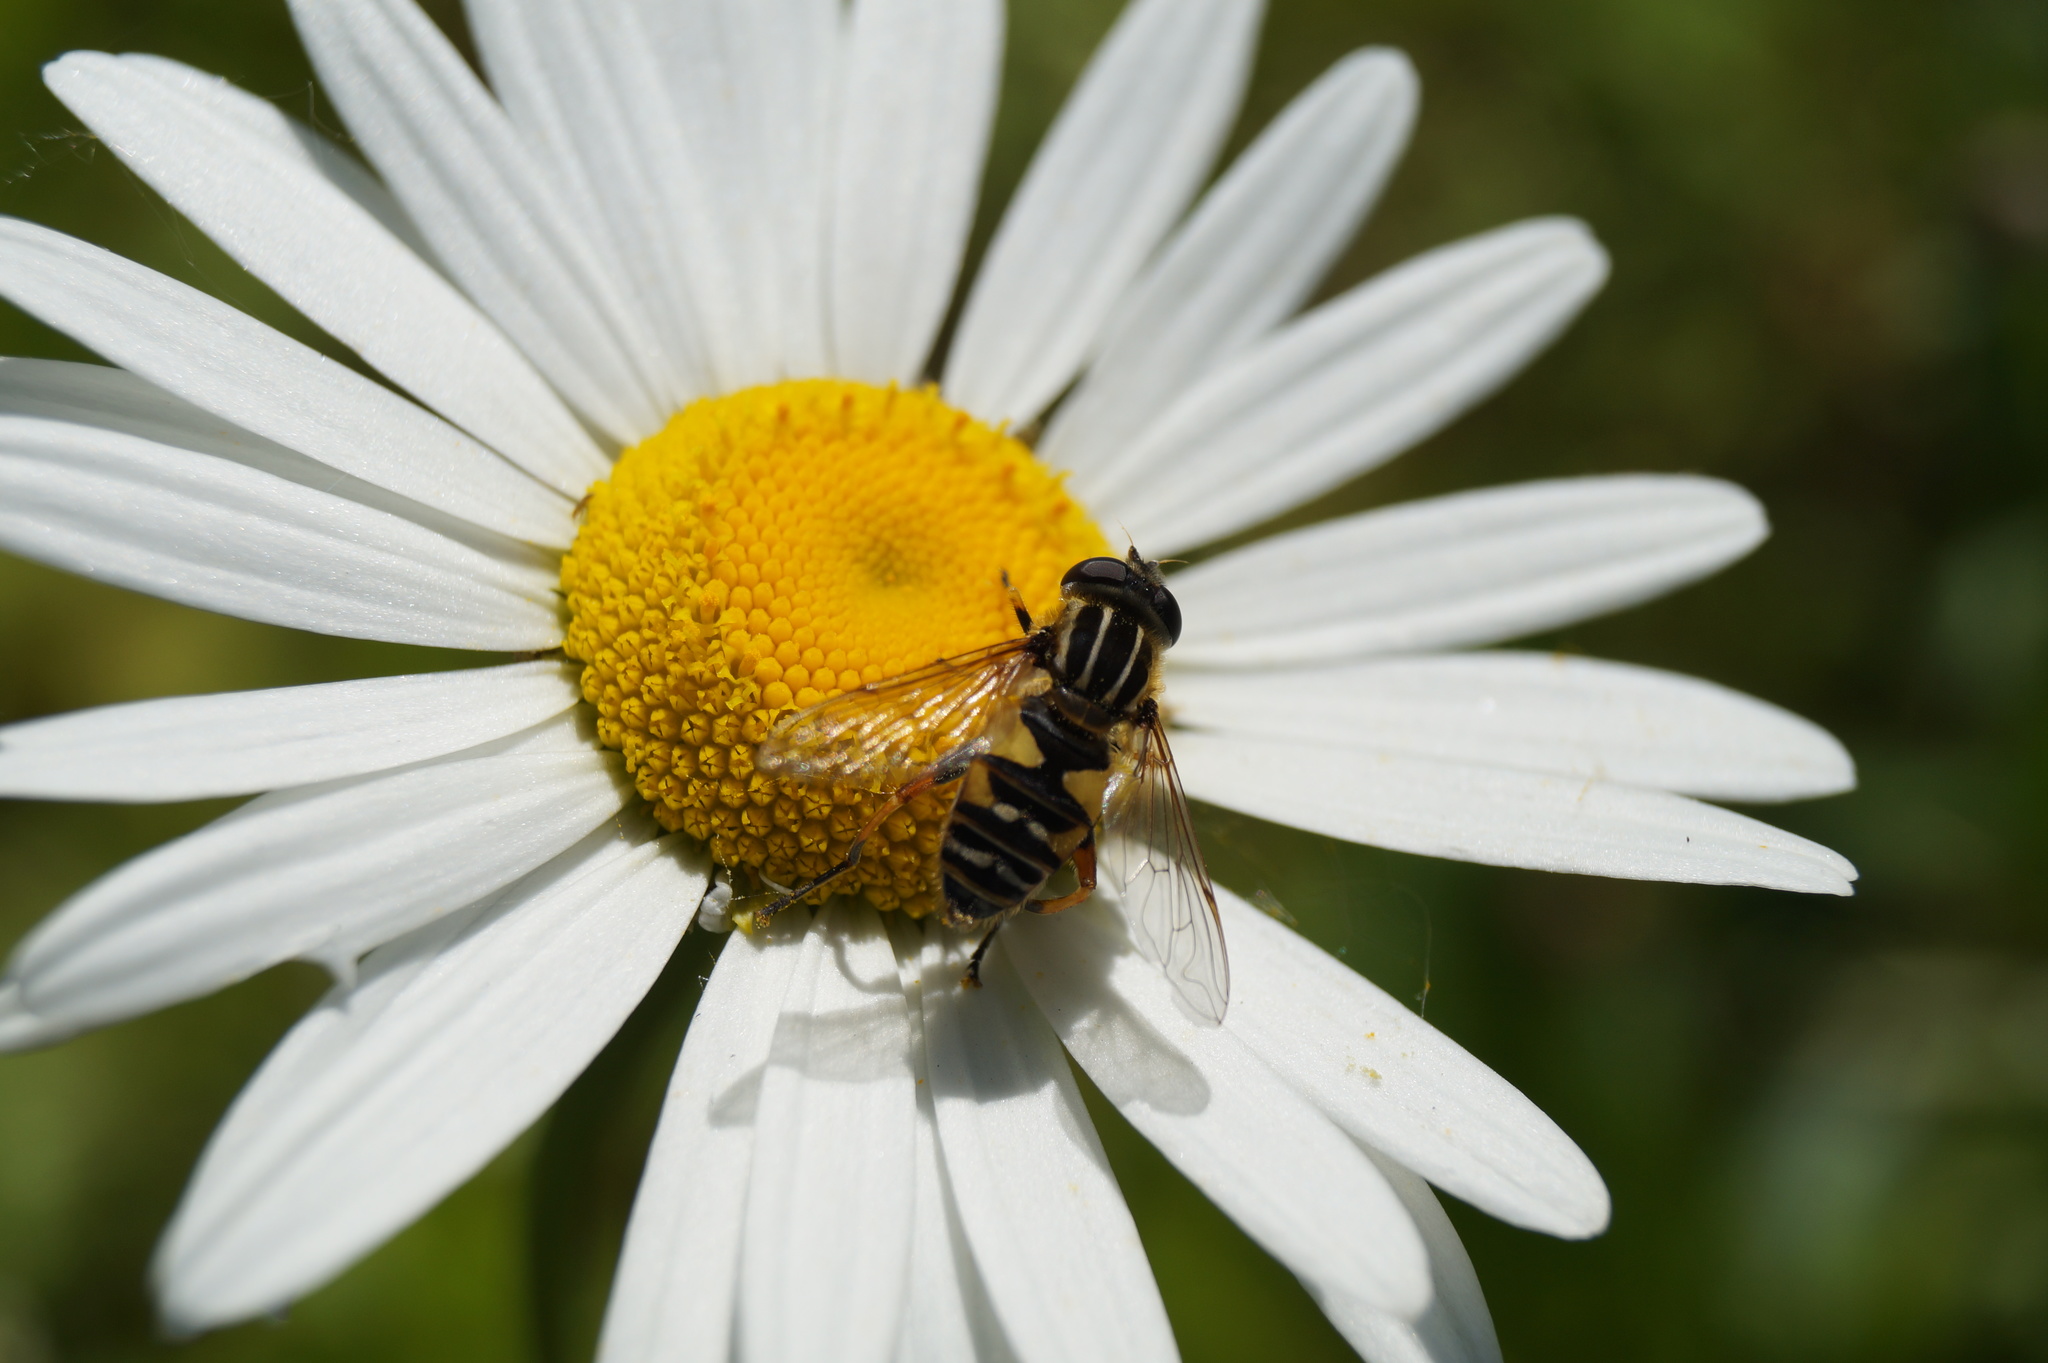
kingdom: Animalia
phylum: Arthropoda
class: Insecta
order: Diptera
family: Syrphidae
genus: Helophilus
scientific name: Helophilus pendulus
